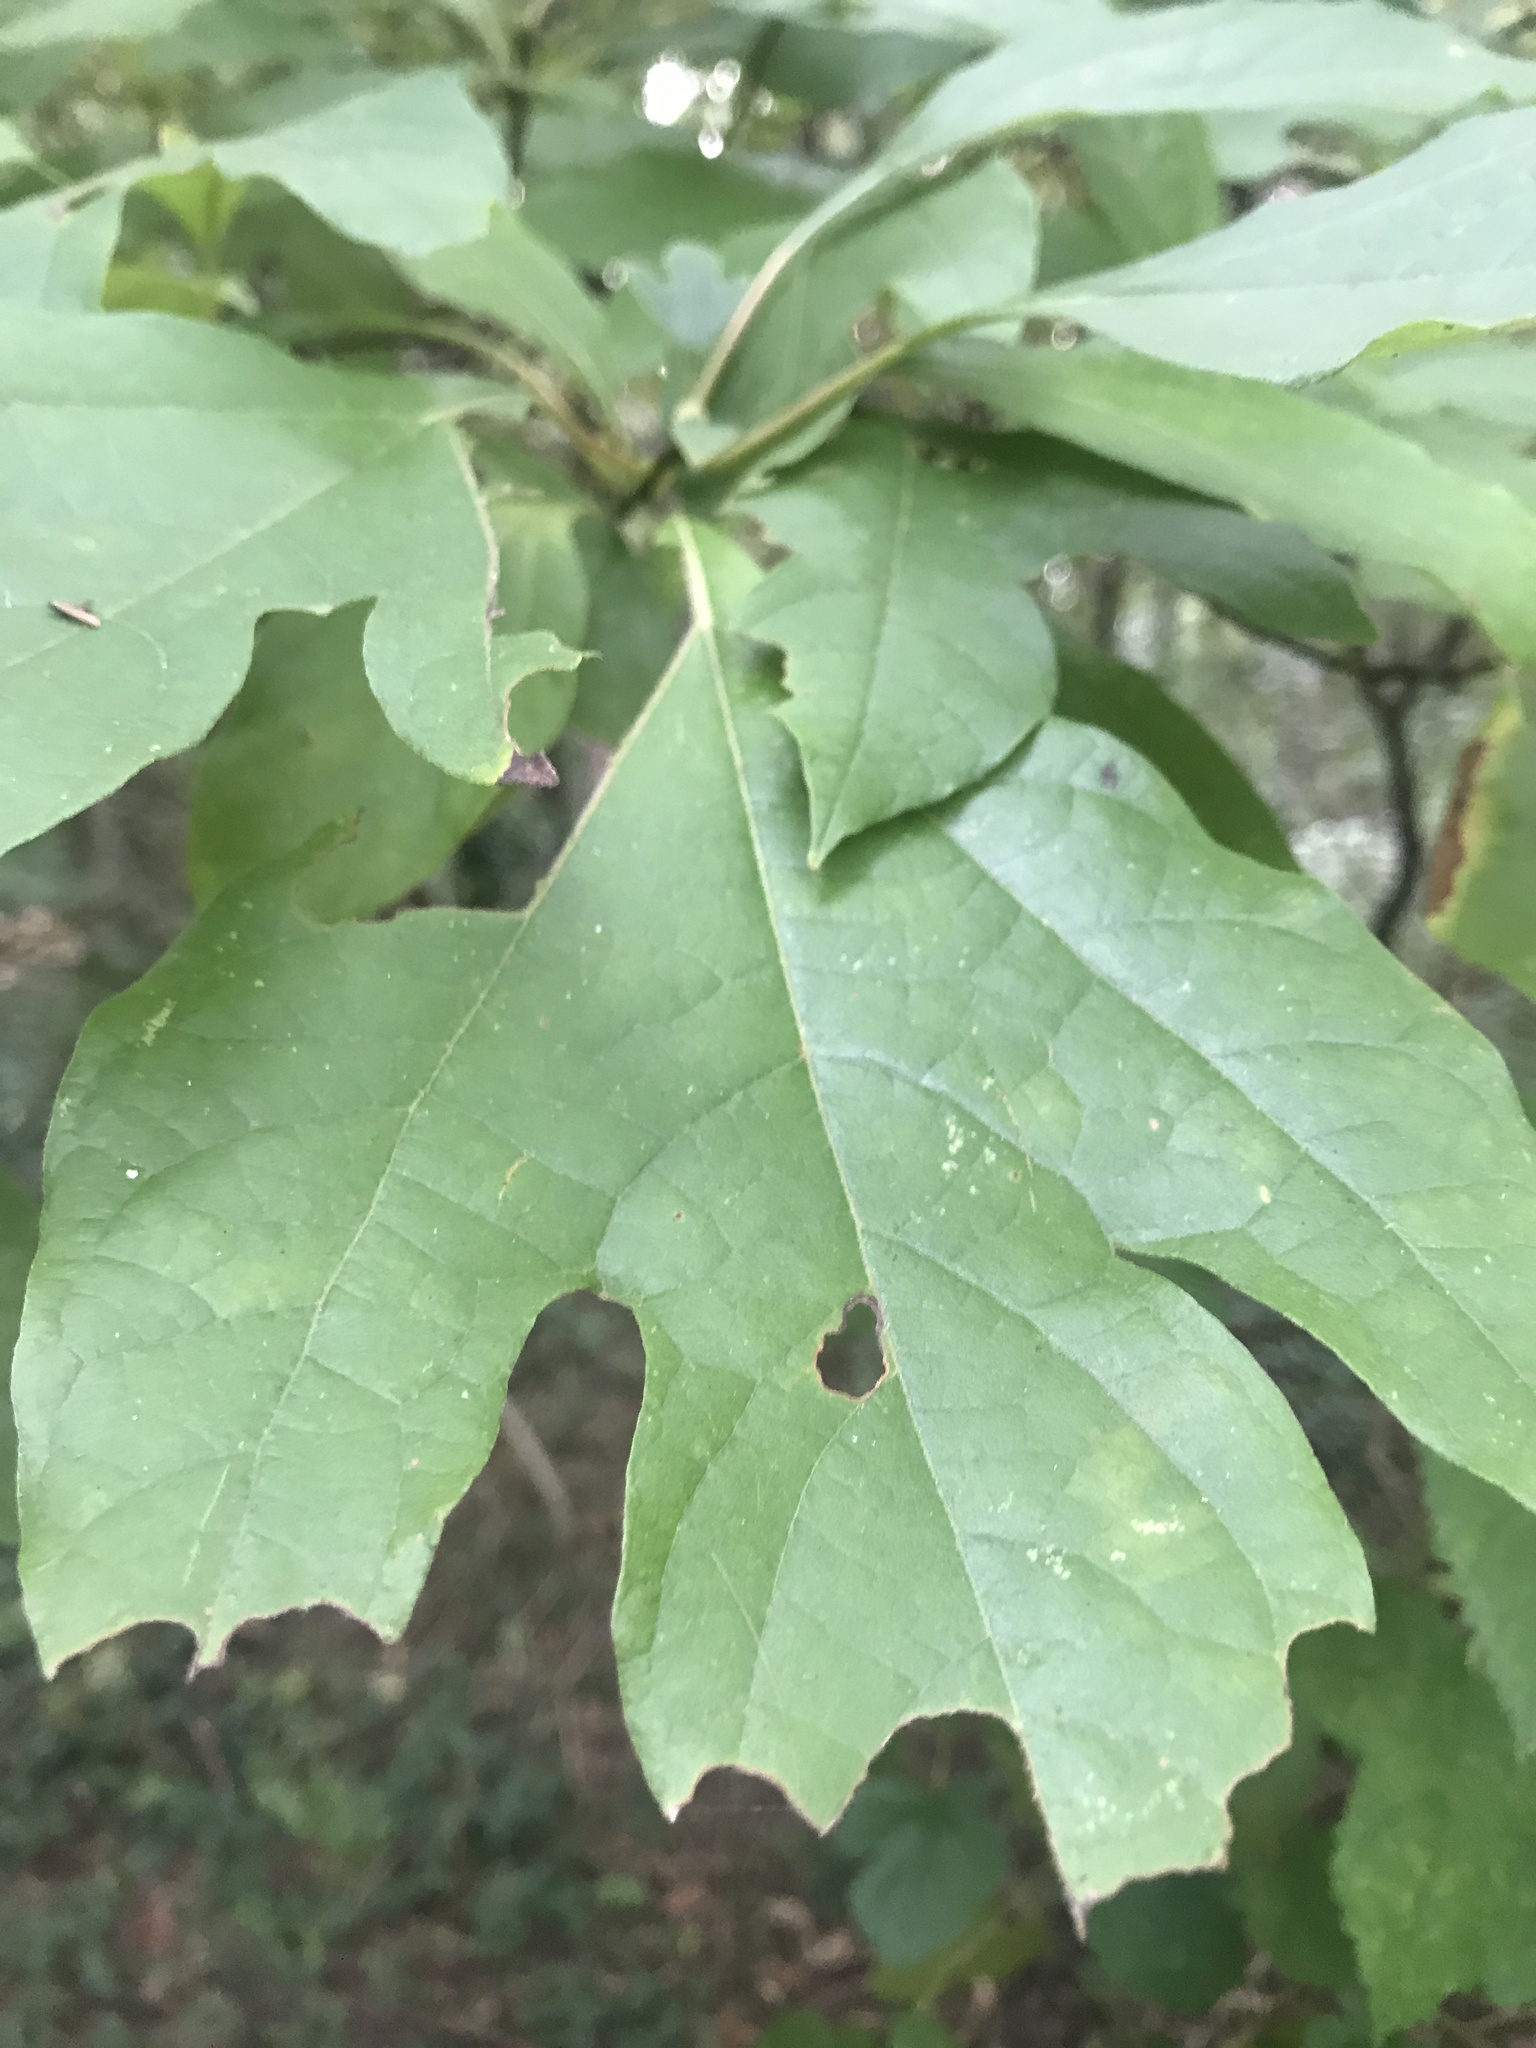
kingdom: Plantae
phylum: Tracheophyta
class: Magnoliopsida
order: Laurales
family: Lauraceae
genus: Sassafras
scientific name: Sassafras albidum
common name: Sassafras
